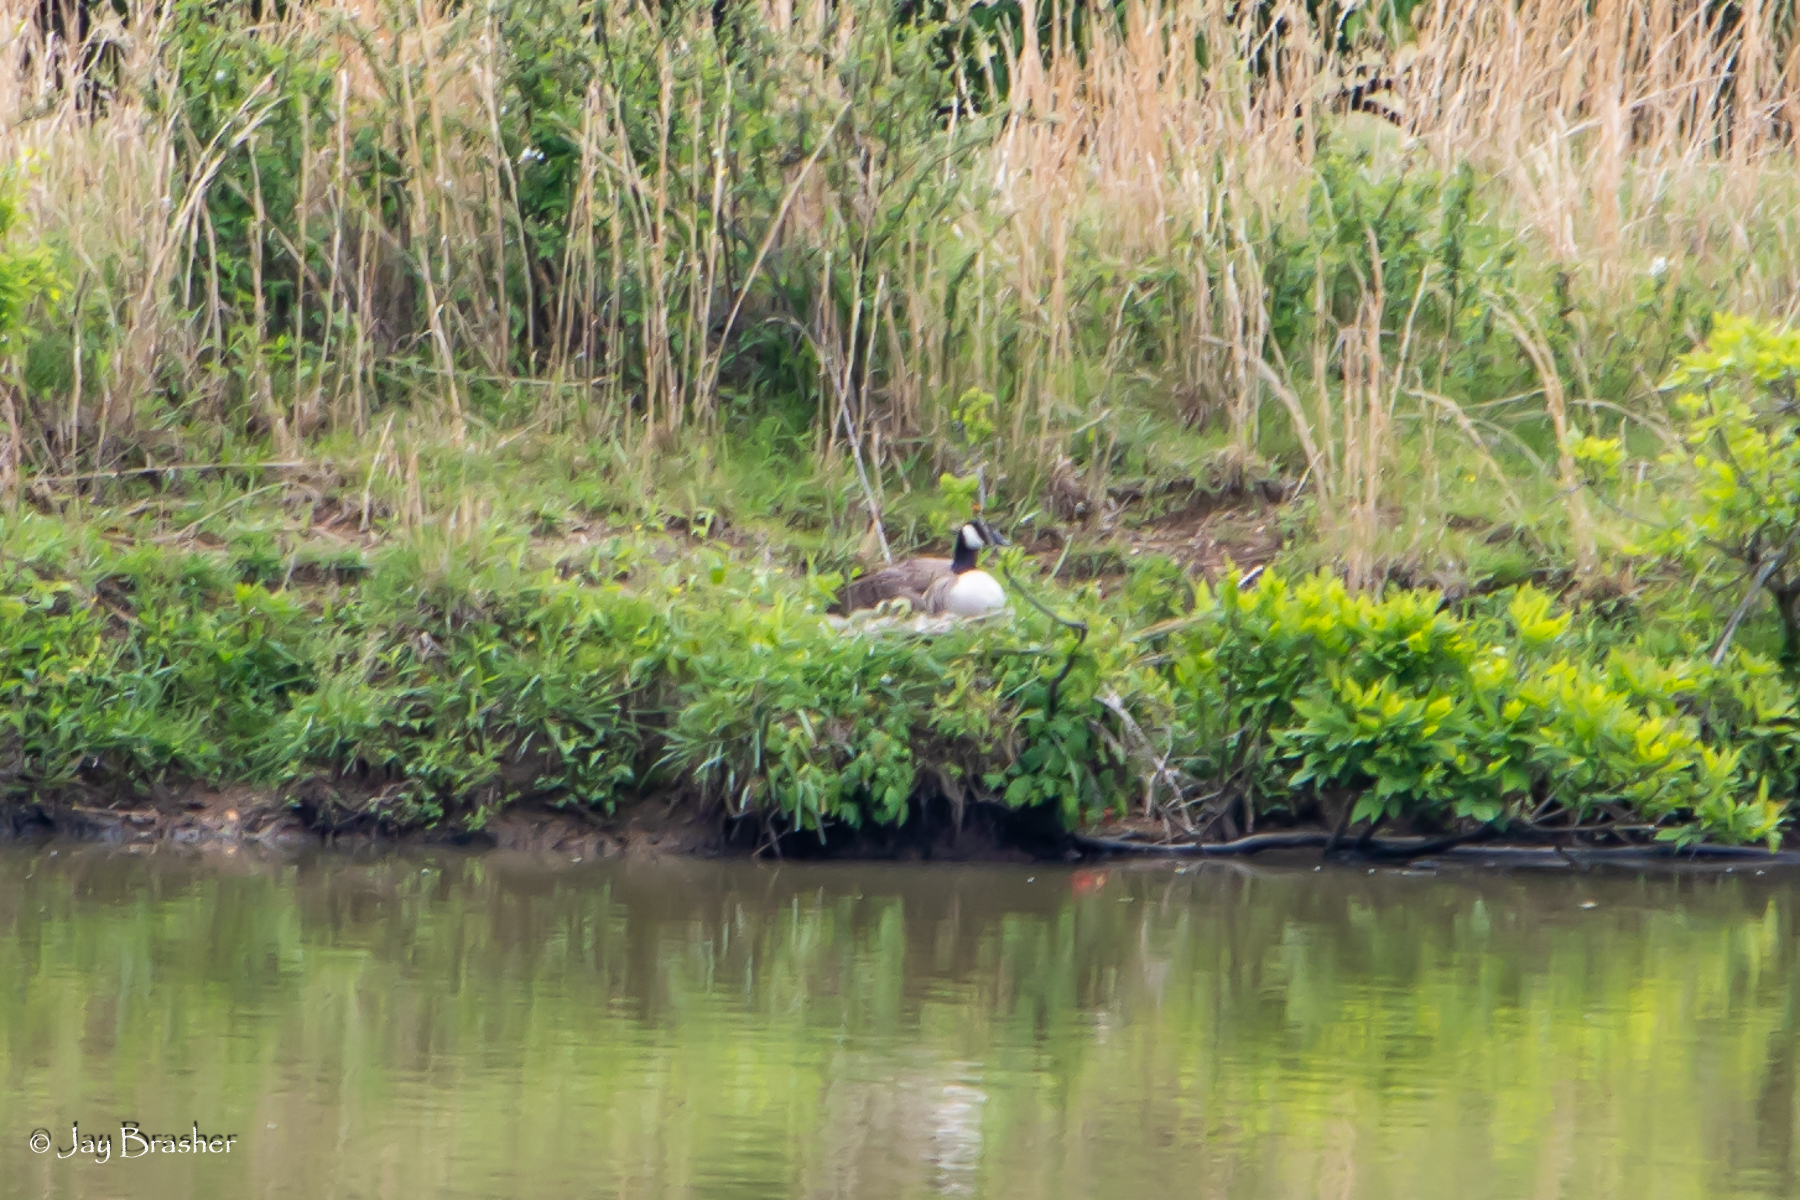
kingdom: Animalia
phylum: Chordata
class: Aves
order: Anseriformes
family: Anatidae
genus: Branta
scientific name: Branta canadensis
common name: Canada goose
